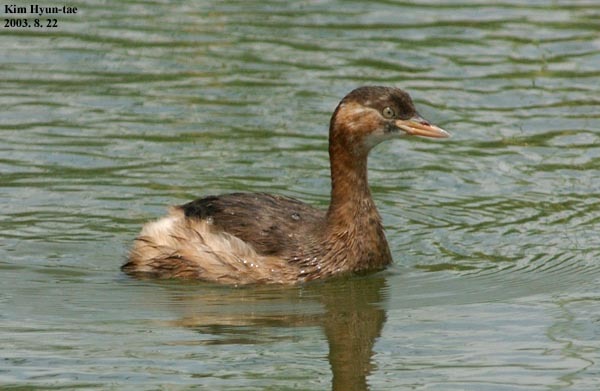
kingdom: Animalia
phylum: Chordata
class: Aves
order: Podicipediformes
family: Podicipedidae
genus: Tachybaptus
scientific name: Tachybaptus ruficollis
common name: Little grebe
